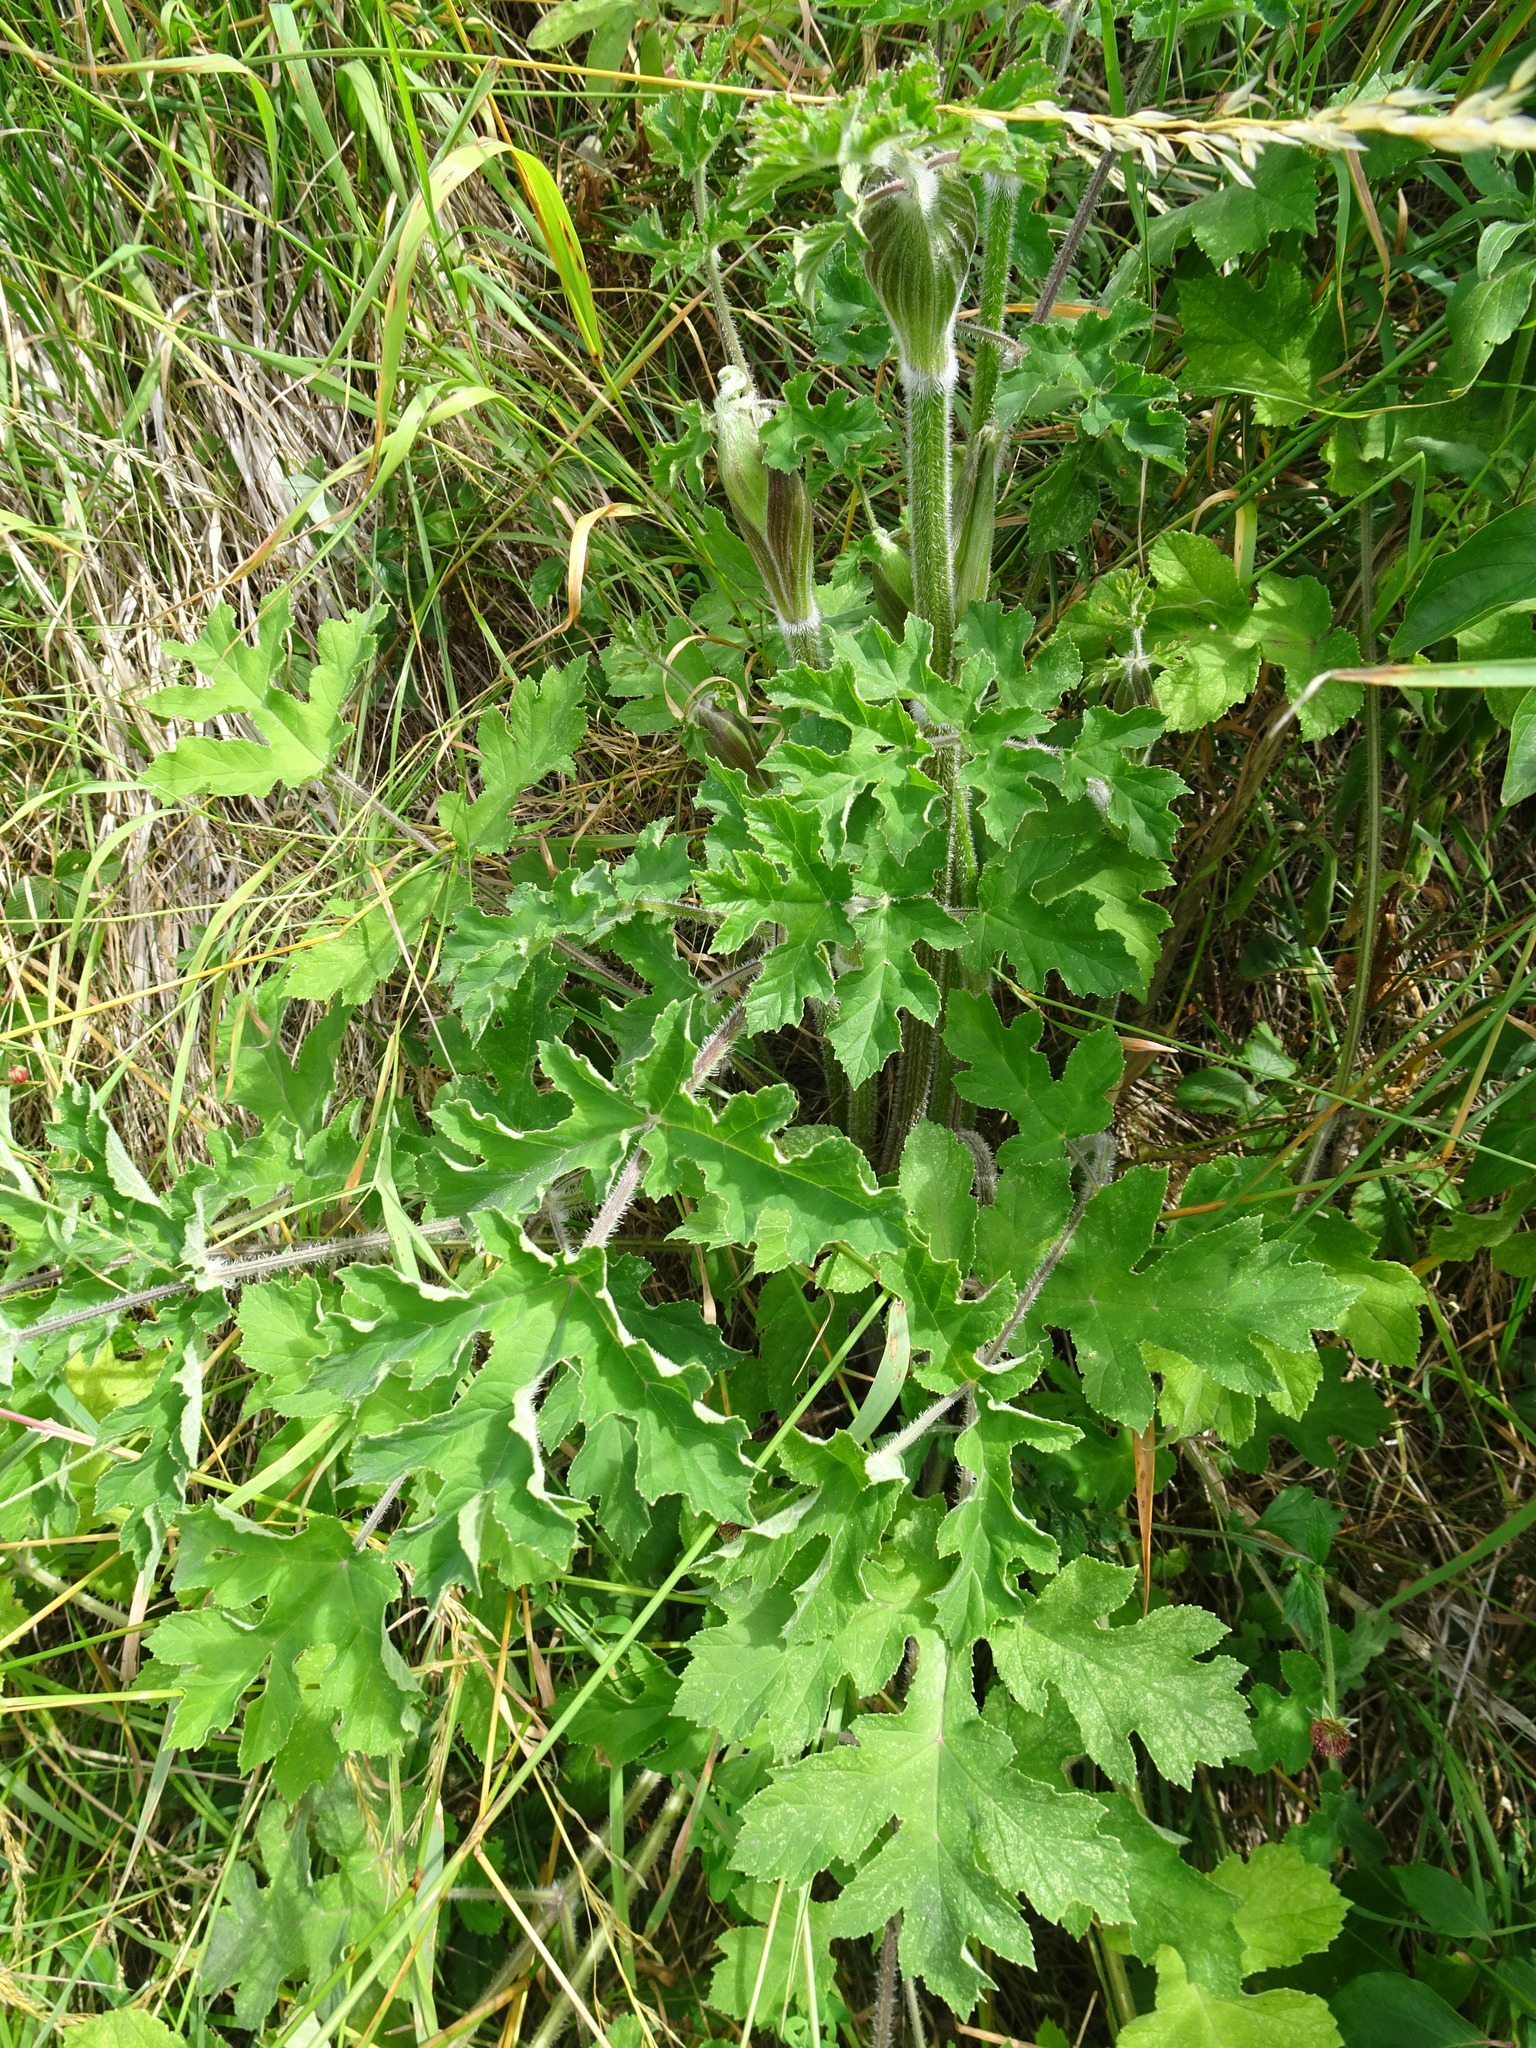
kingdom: Plantae
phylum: Tracheophyta
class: Magnoliopsida
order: Apiales
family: Apiaceae
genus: Heracleum
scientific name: Heracleum sphondylium
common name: Hogweed
